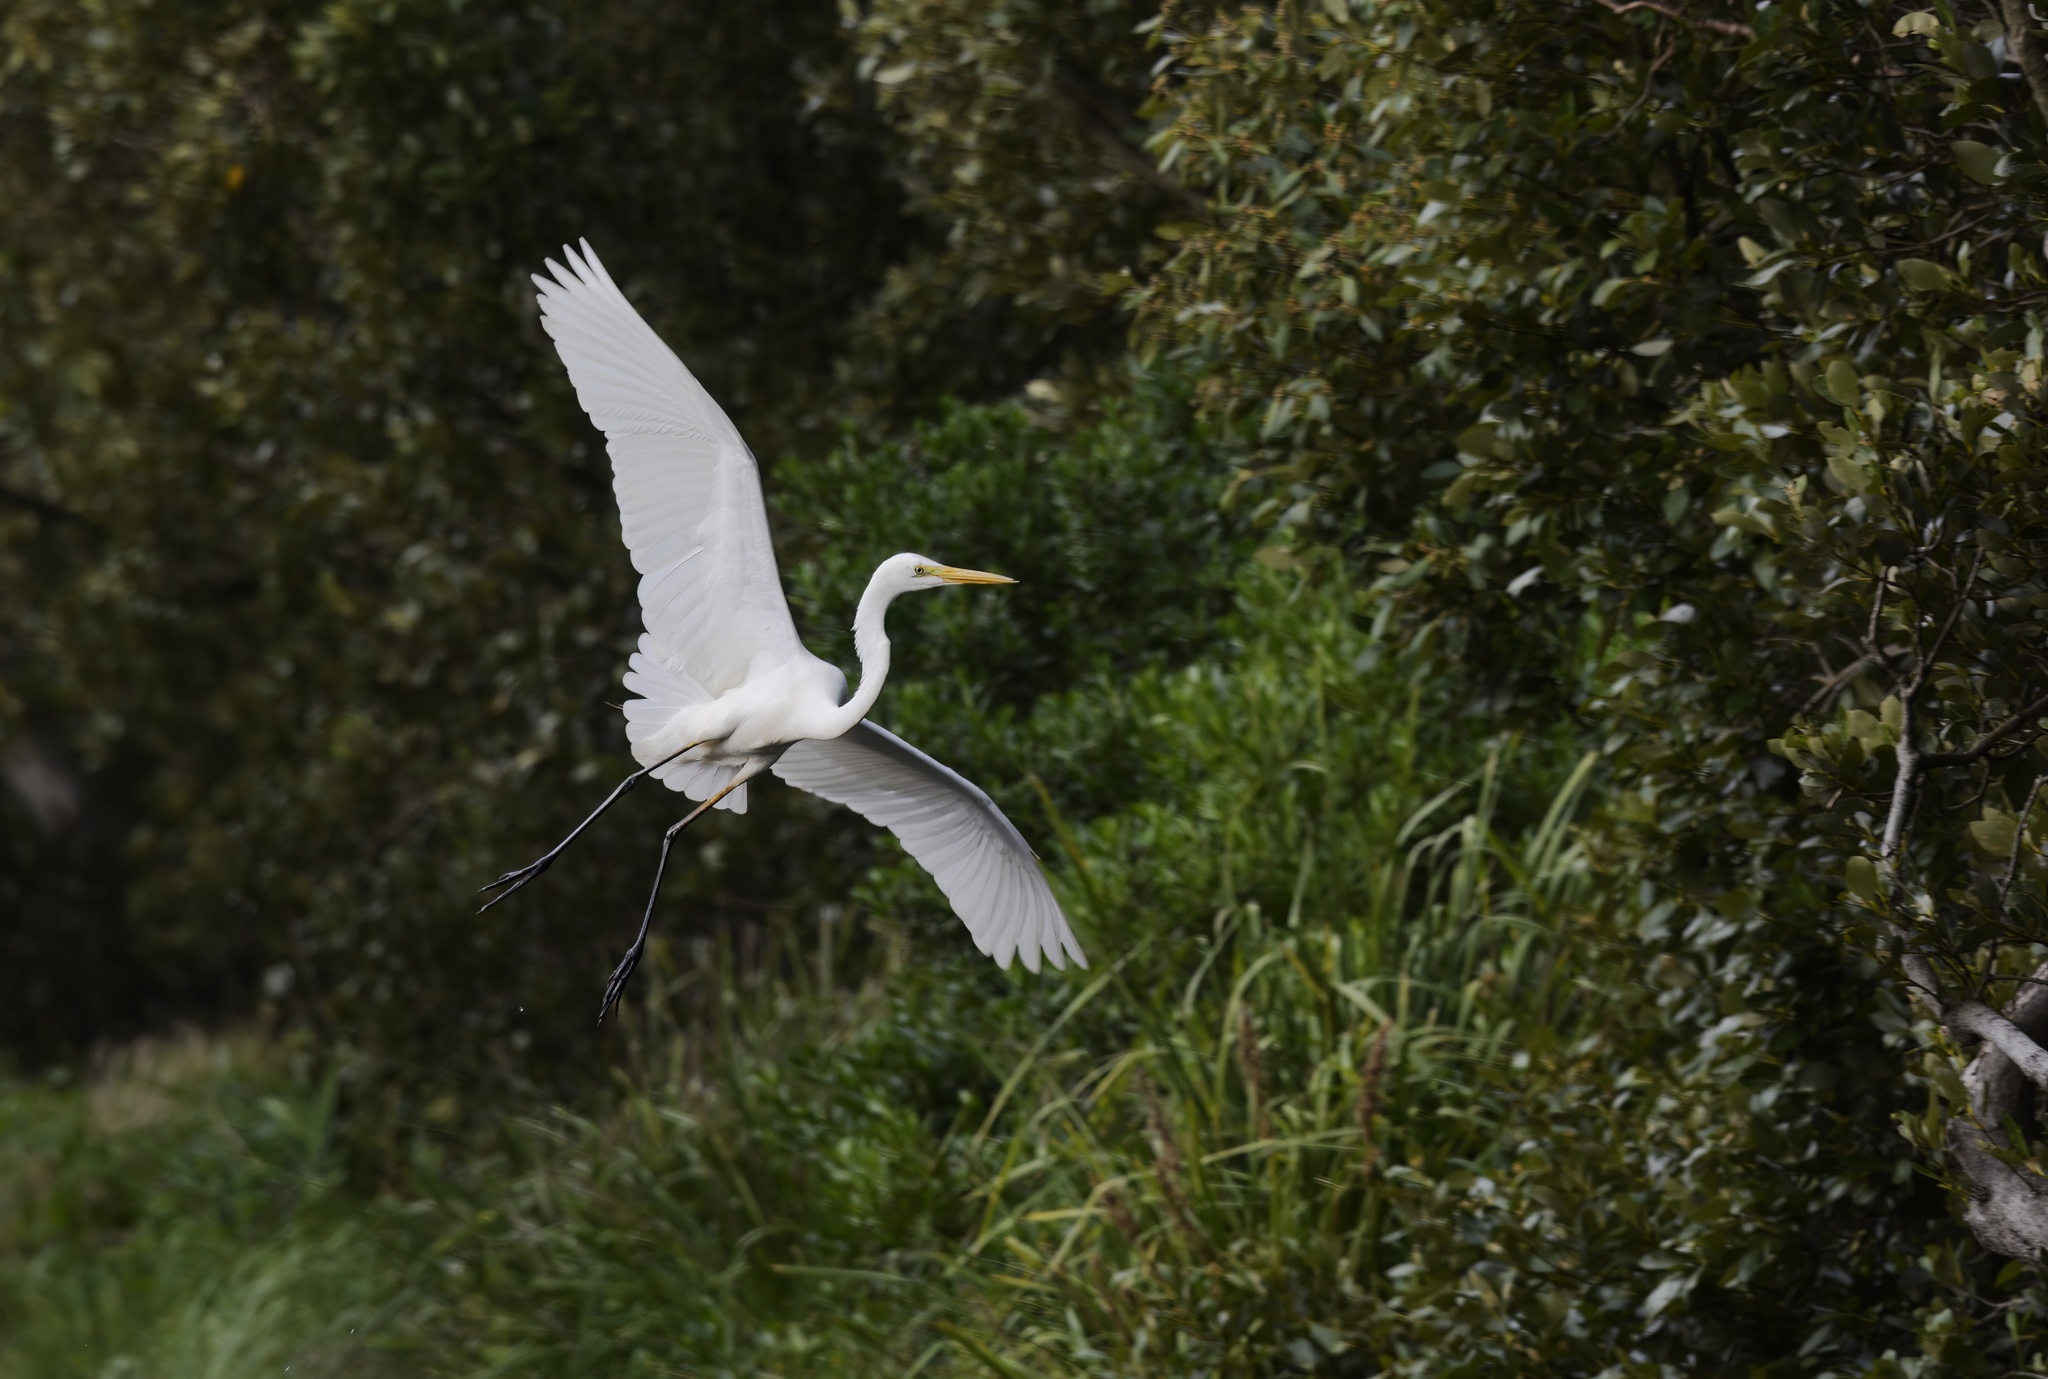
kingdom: Animalia
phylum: Chordata
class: Aves
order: Pelecaniformes
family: Ardeidae
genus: Ardea
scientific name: Ardea alba
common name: Great egret
